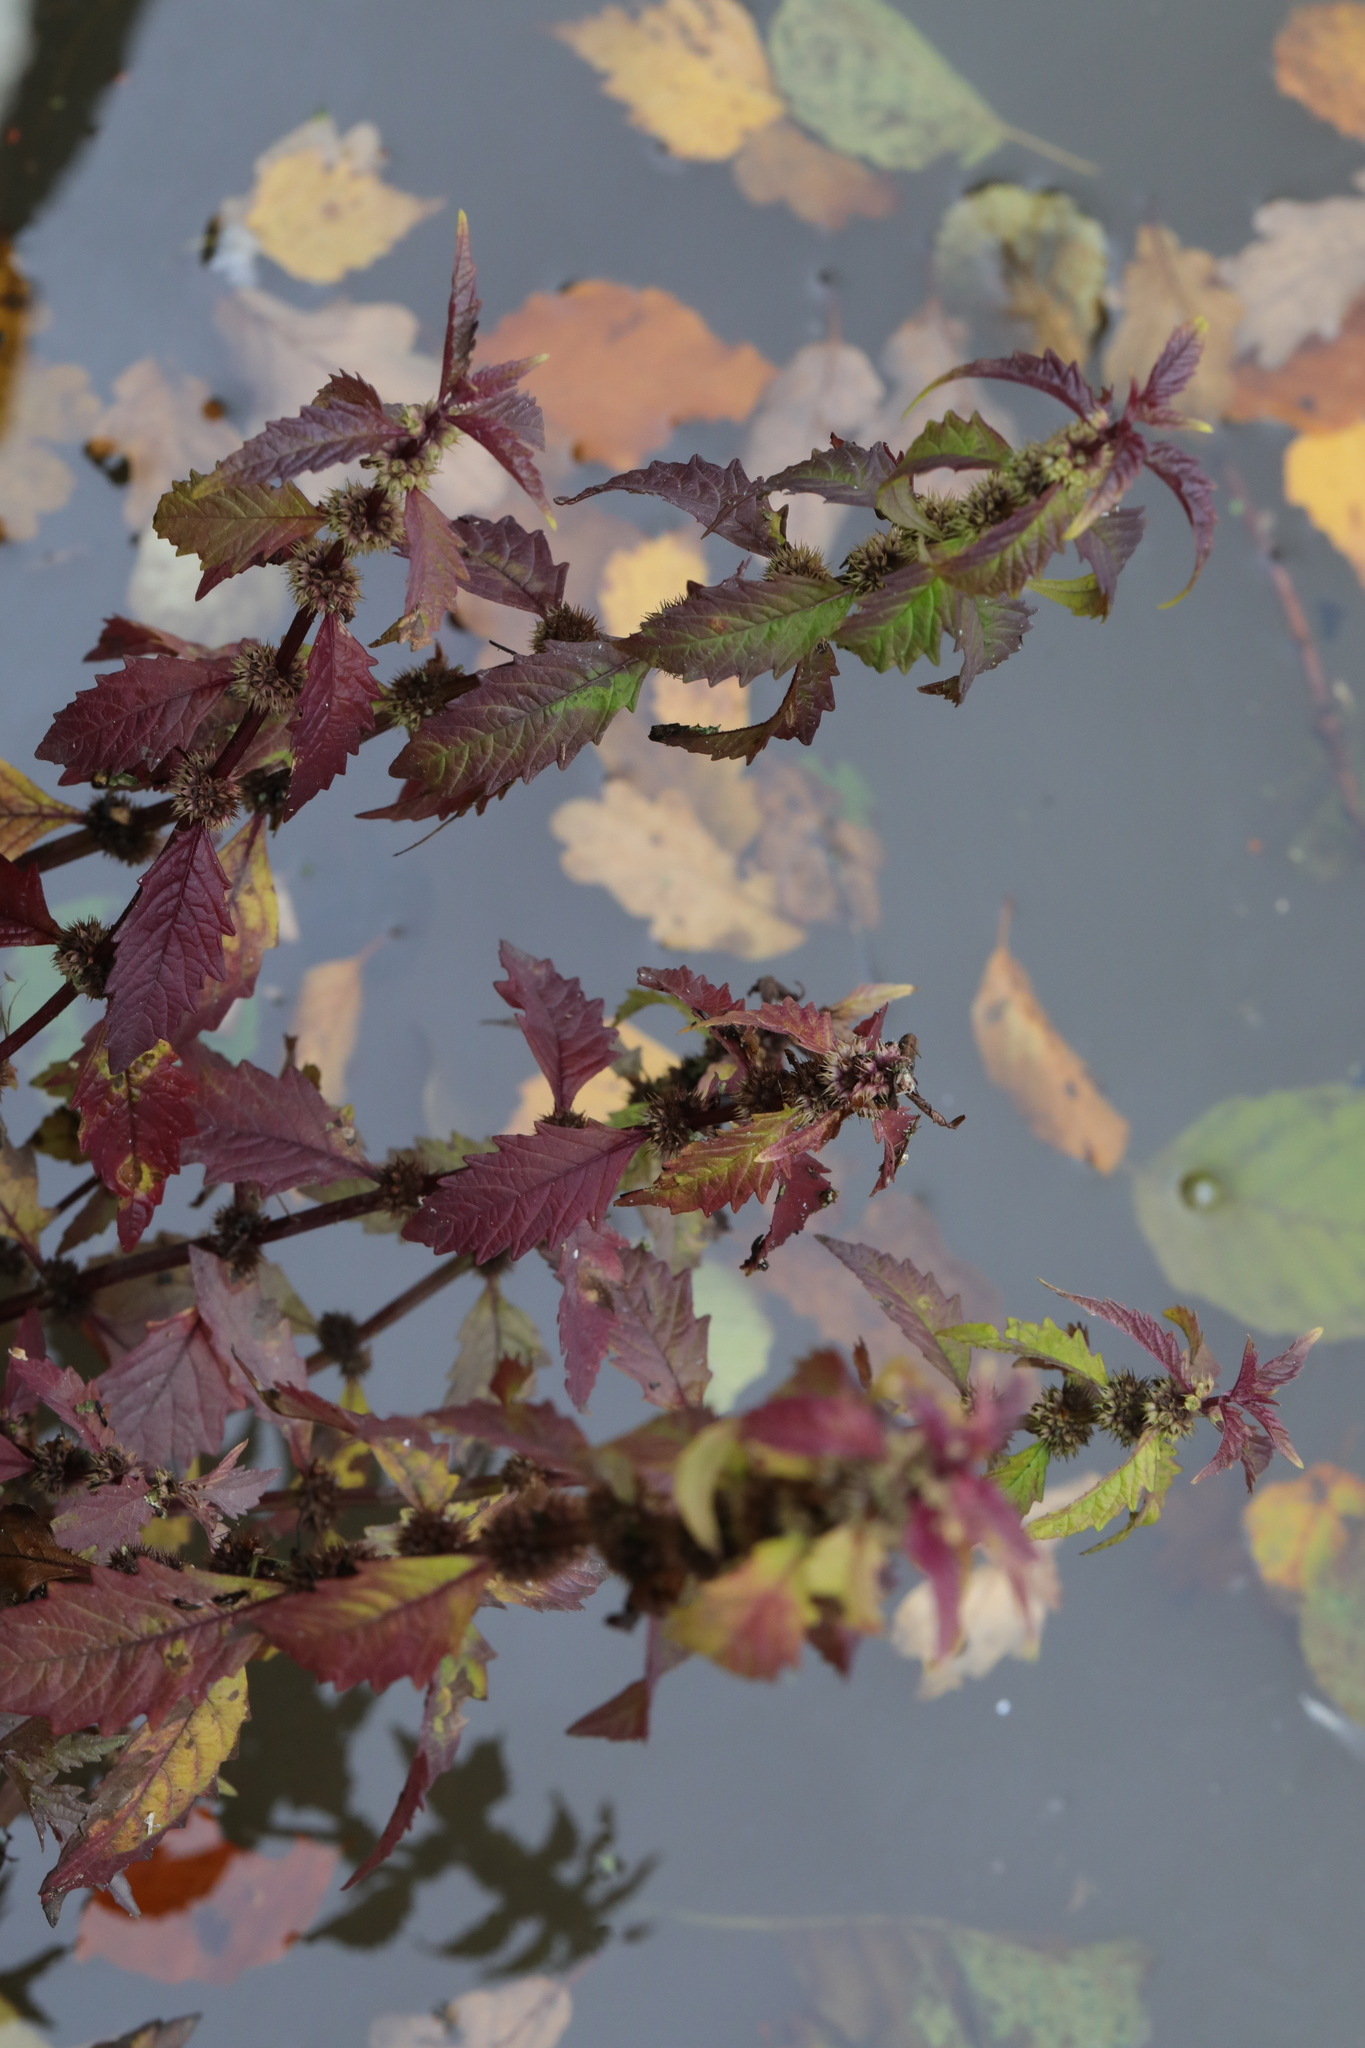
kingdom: Plantae
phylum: Tracheophyta
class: Magnoliopsida
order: Lamiales
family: Lamiaceae
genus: Lycopus
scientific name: Lycopus europaeus
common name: European bugleweed
